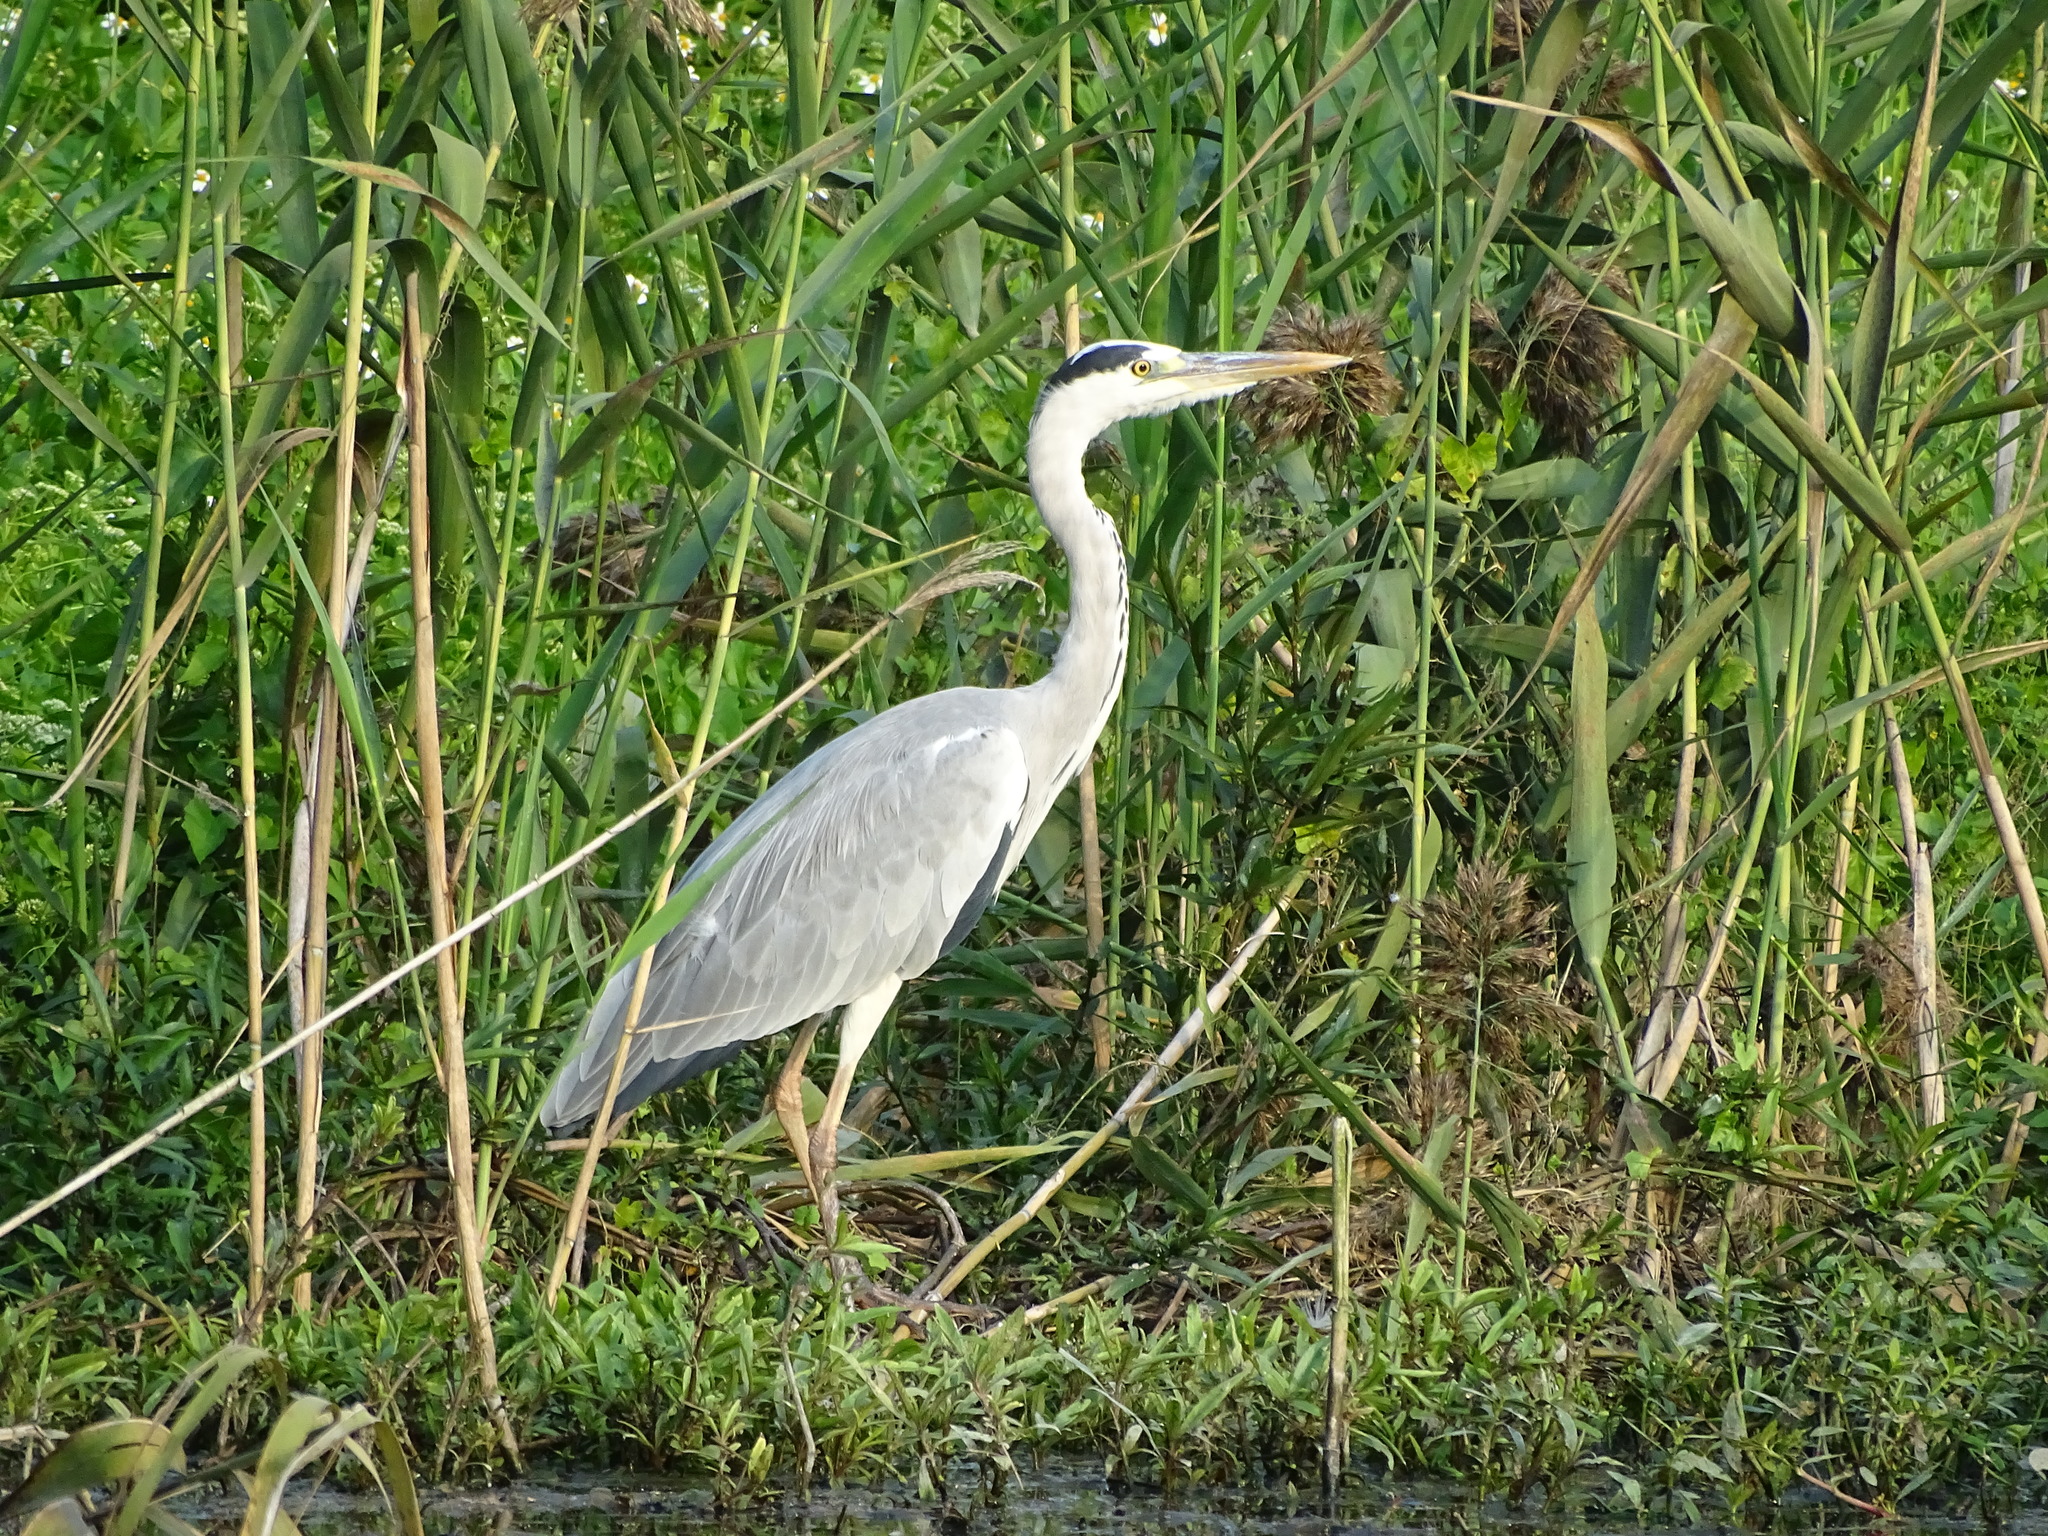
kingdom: Animalia
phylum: Chordata
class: Aves
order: Pelecaniformes
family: Ardeidae
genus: Ardea
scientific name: Ardea cinerea
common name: Grey heron
